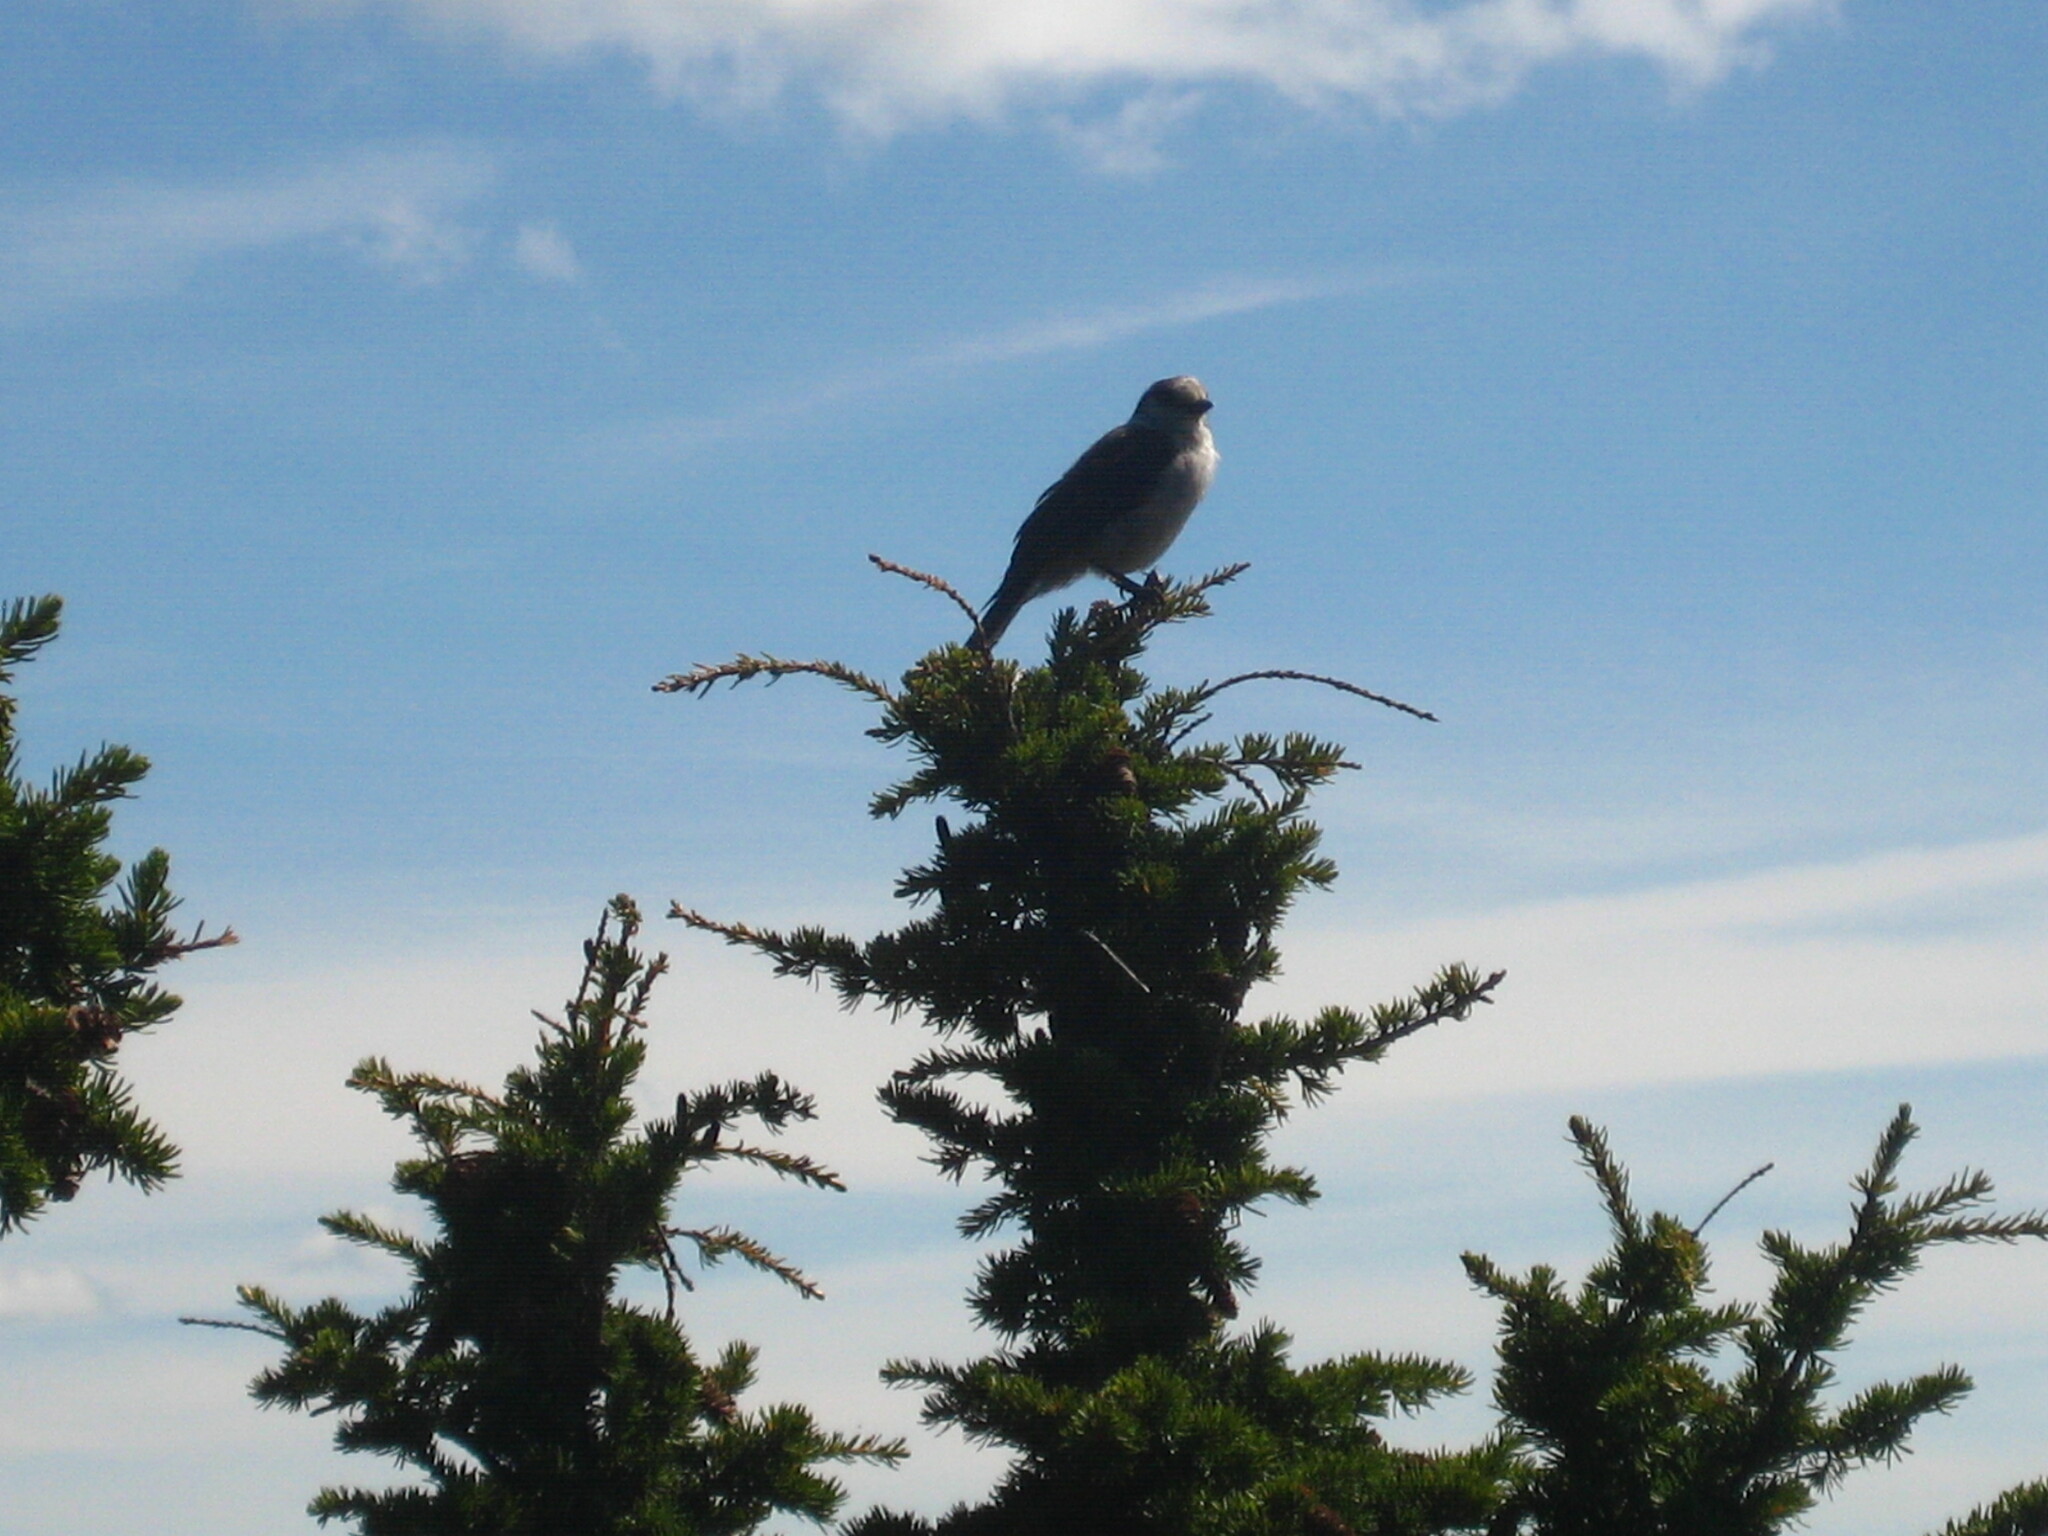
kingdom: Animalia
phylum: Chordata
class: Aves
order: Passeriformes
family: Corvidae
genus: Perisoreus
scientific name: Perisoreus canadensis
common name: Gray jay
